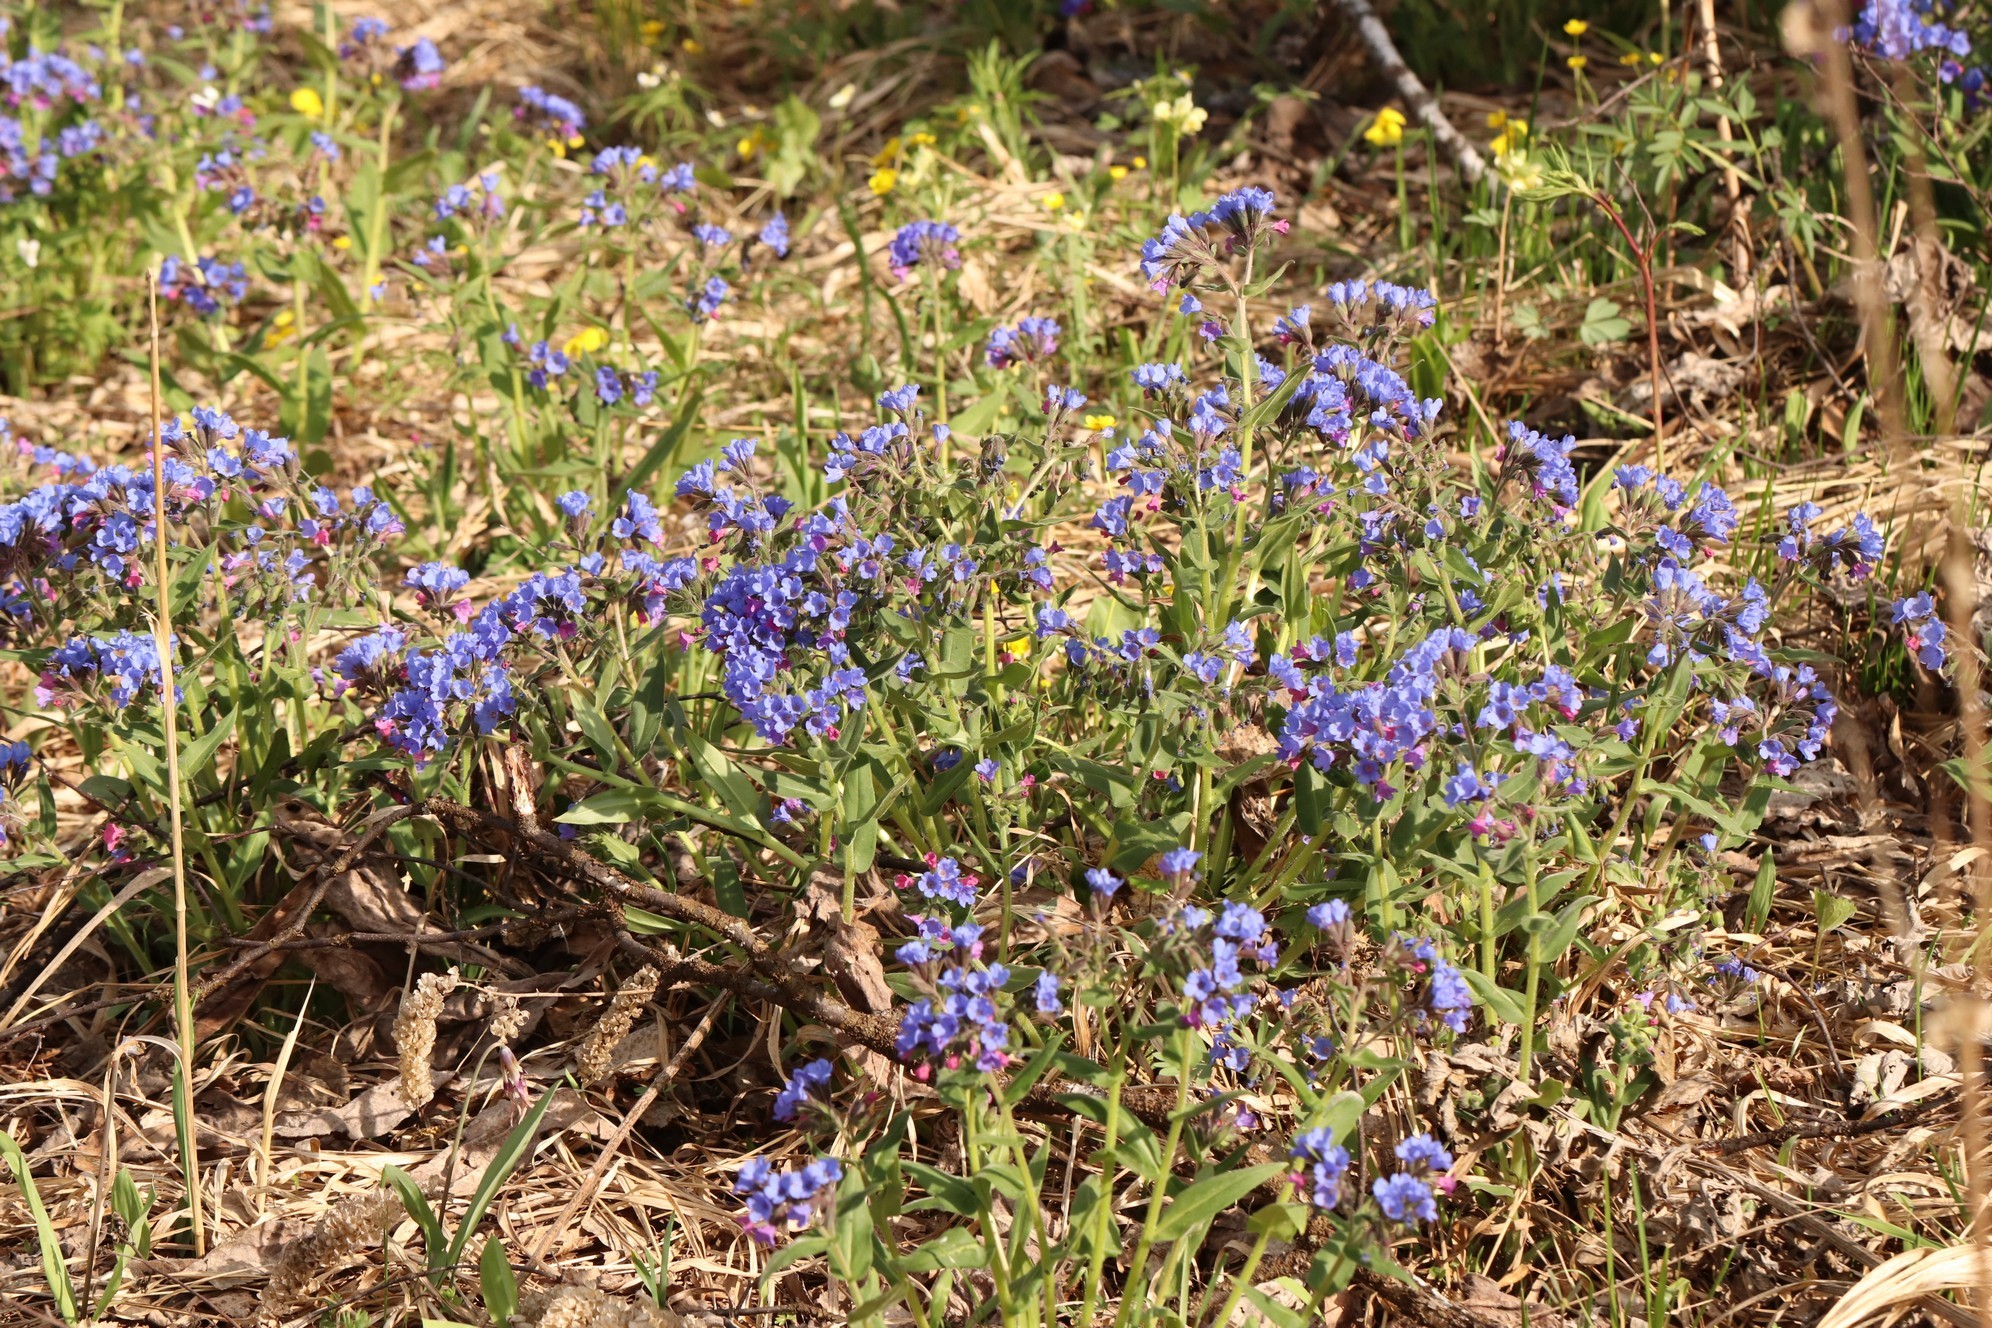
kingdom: Plantae
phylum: Tracheophyta
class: Magnoliopsida
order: Boraginales
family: Boraginaceae
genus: Pulmonaria
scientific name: Pulmonaria mollis
